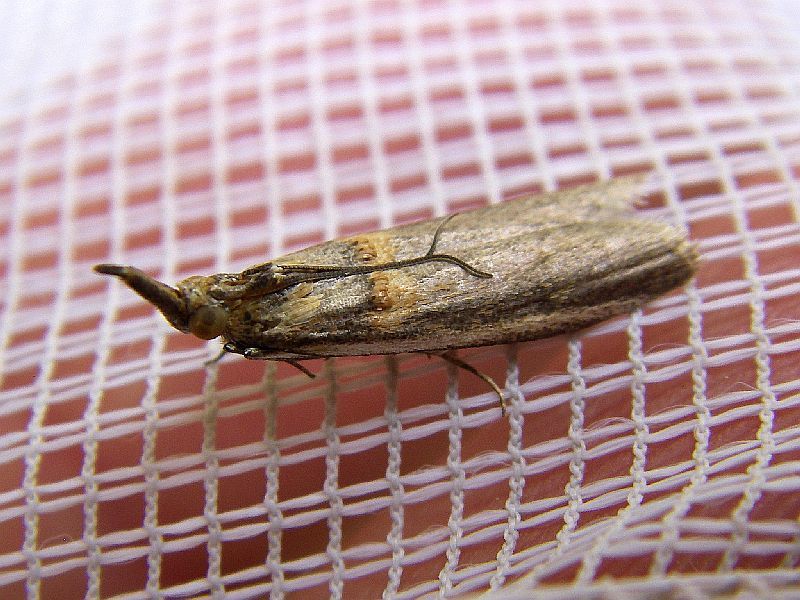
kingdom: Animalia
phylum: Arthropoda
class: Insecta
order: Lepidoptera
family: Pyralidae
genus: Etiella
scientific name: Etiella zinckenella
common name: Gold-banded etiella moth
